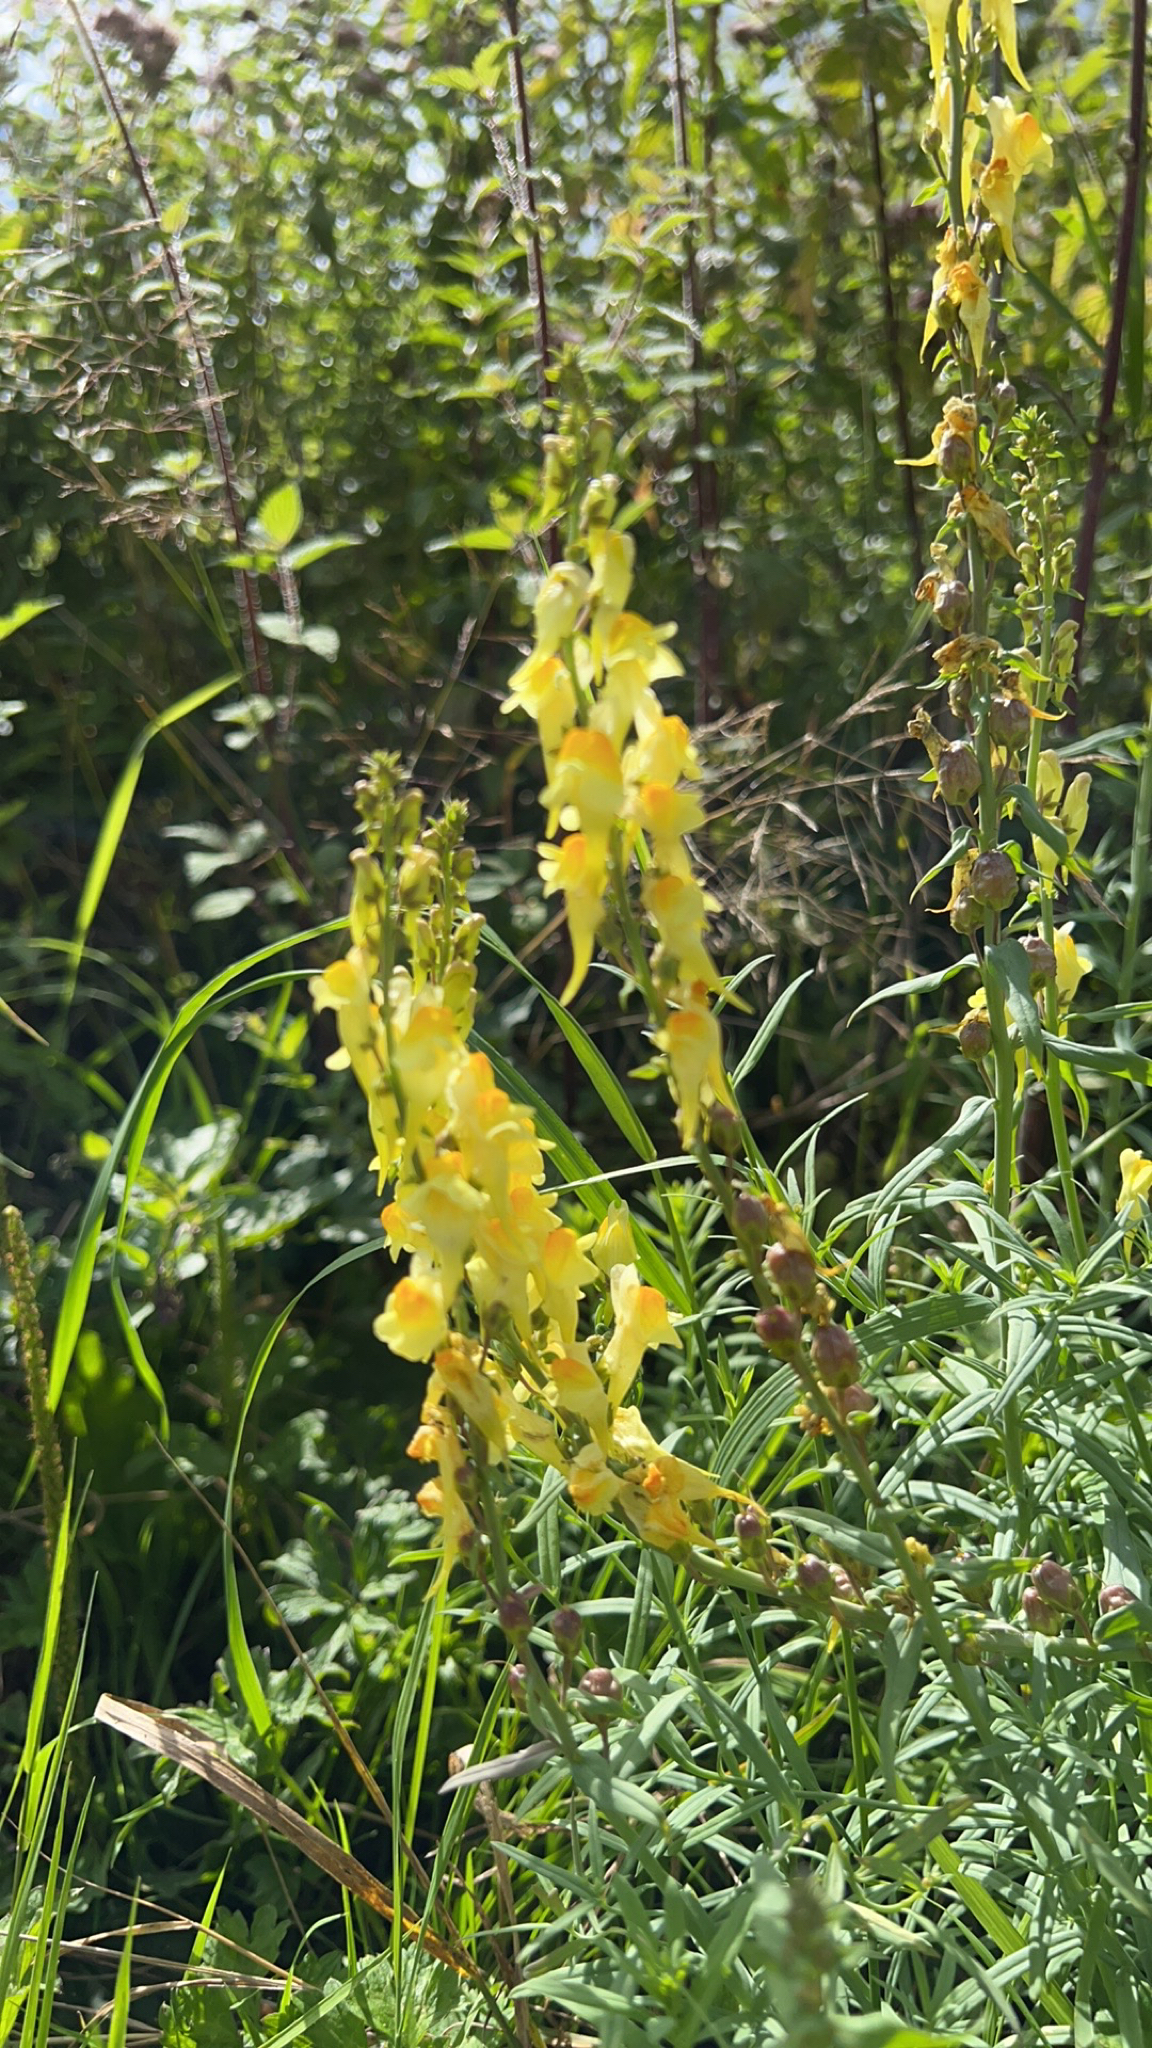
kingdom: Plantae
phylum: Tracheophyta
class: Magnoliopsida
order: Lamiales
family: Plantaginaceae
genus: Linaria
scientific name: Linaria vulgaris
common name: Butter and eggs
